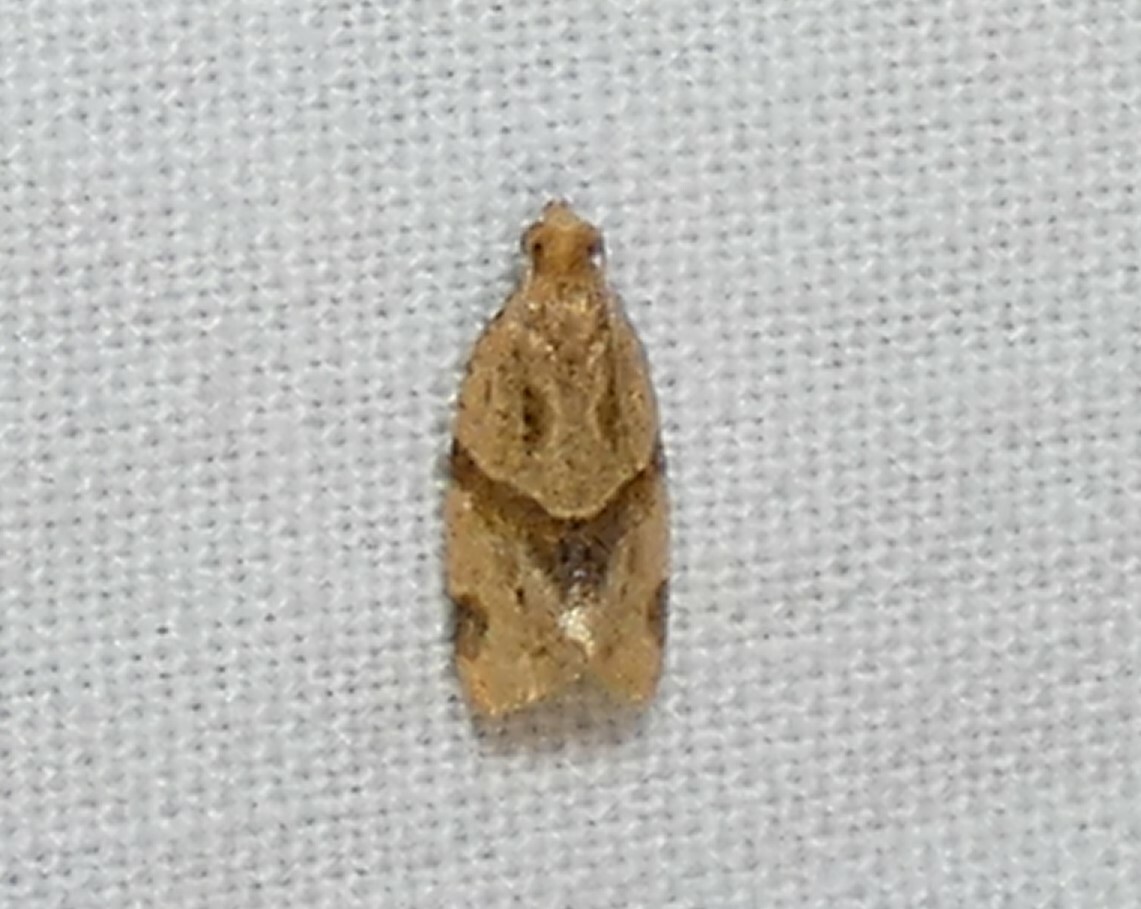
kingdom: Animalia
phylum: Arthropoda
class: Insecta
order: Lepidoptera
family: Tortricidae
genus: Clepsis
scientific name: Clepsis peritana
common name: Garden tortrix
